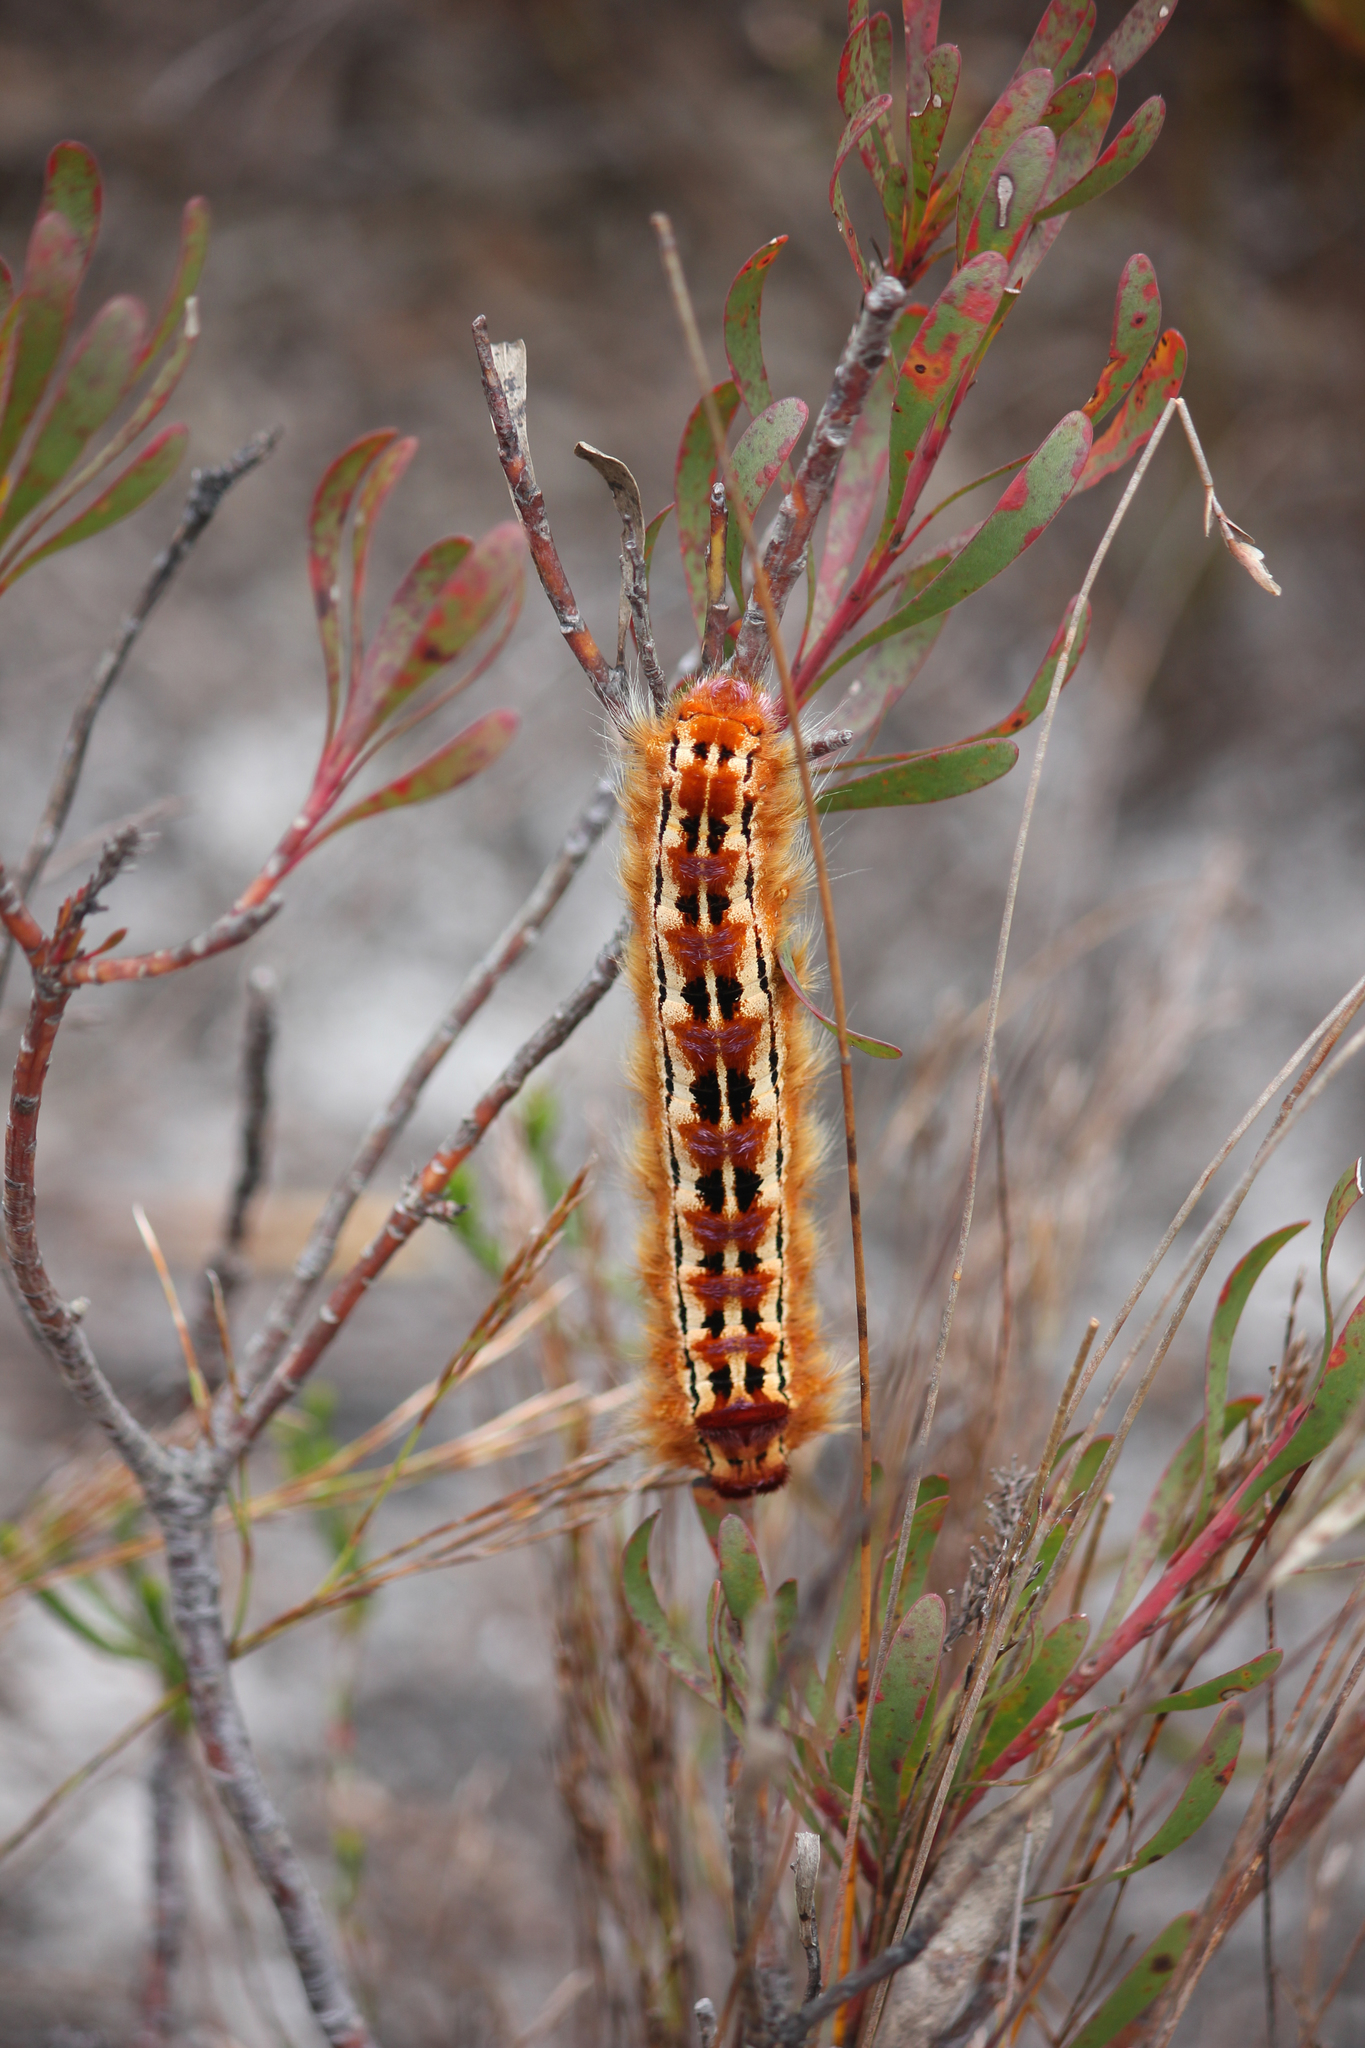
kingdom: Animalia
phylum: Arthropoda
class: Insecta
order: Lepidoptera
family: Lasiocampidae
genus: Eutricha
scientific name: Eutricha bifascia
